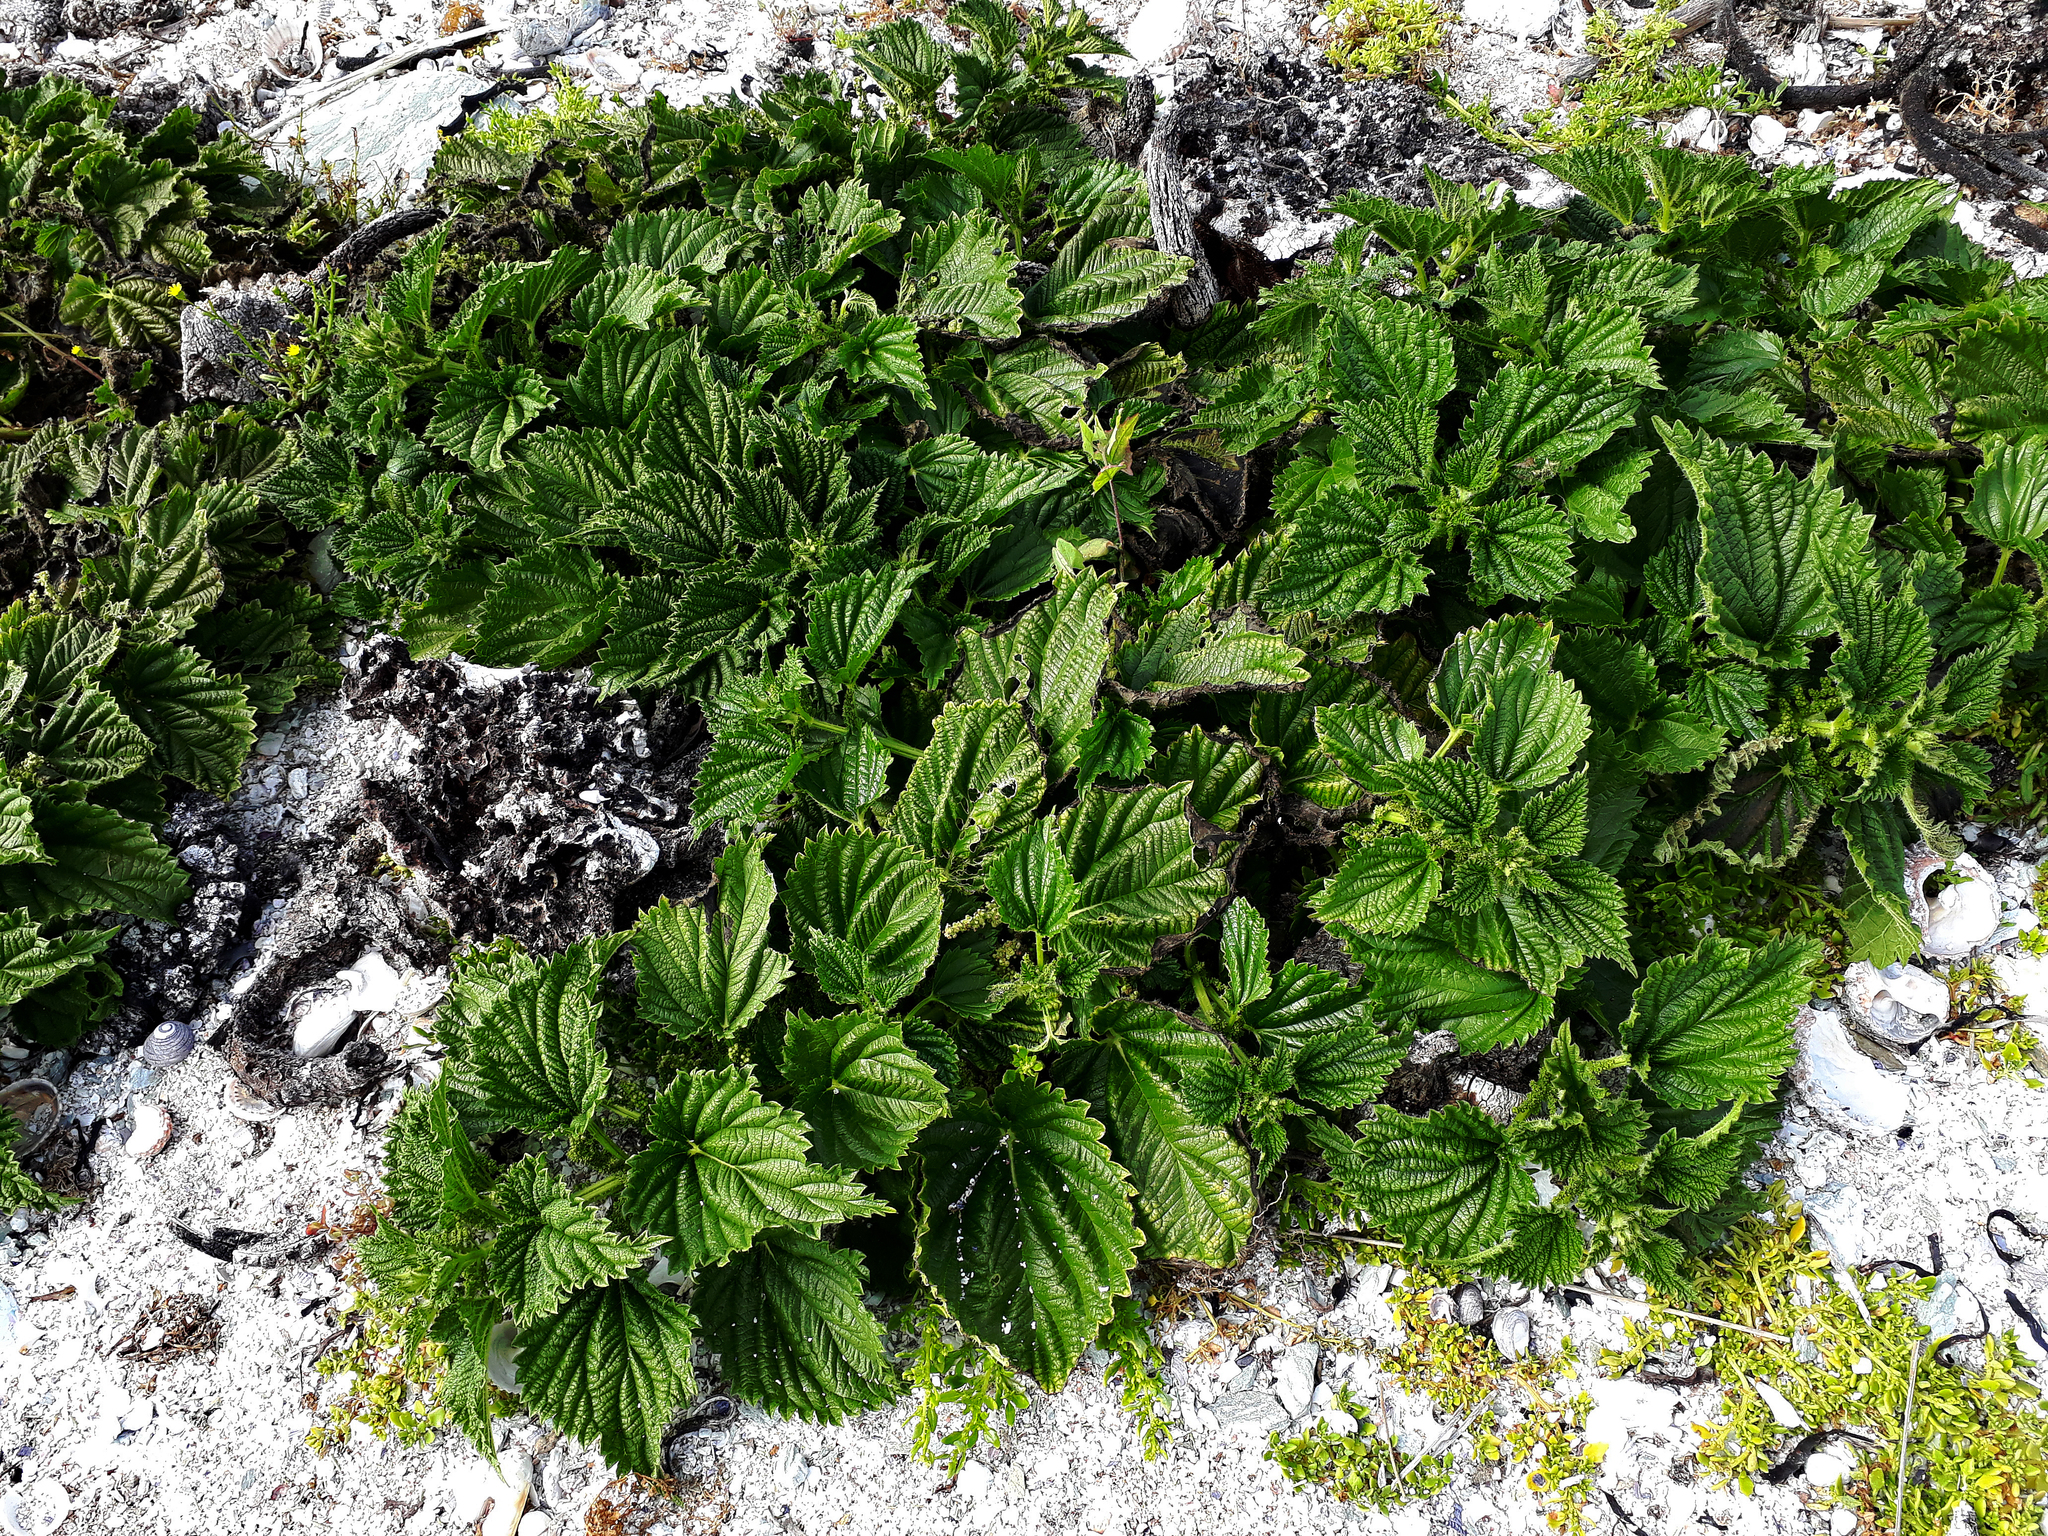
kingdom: Plantae
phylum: Tracheophyta
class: Magnoliopsida
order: Rosales
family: Urticaceae
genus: Urtica
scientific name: Urtica australis
